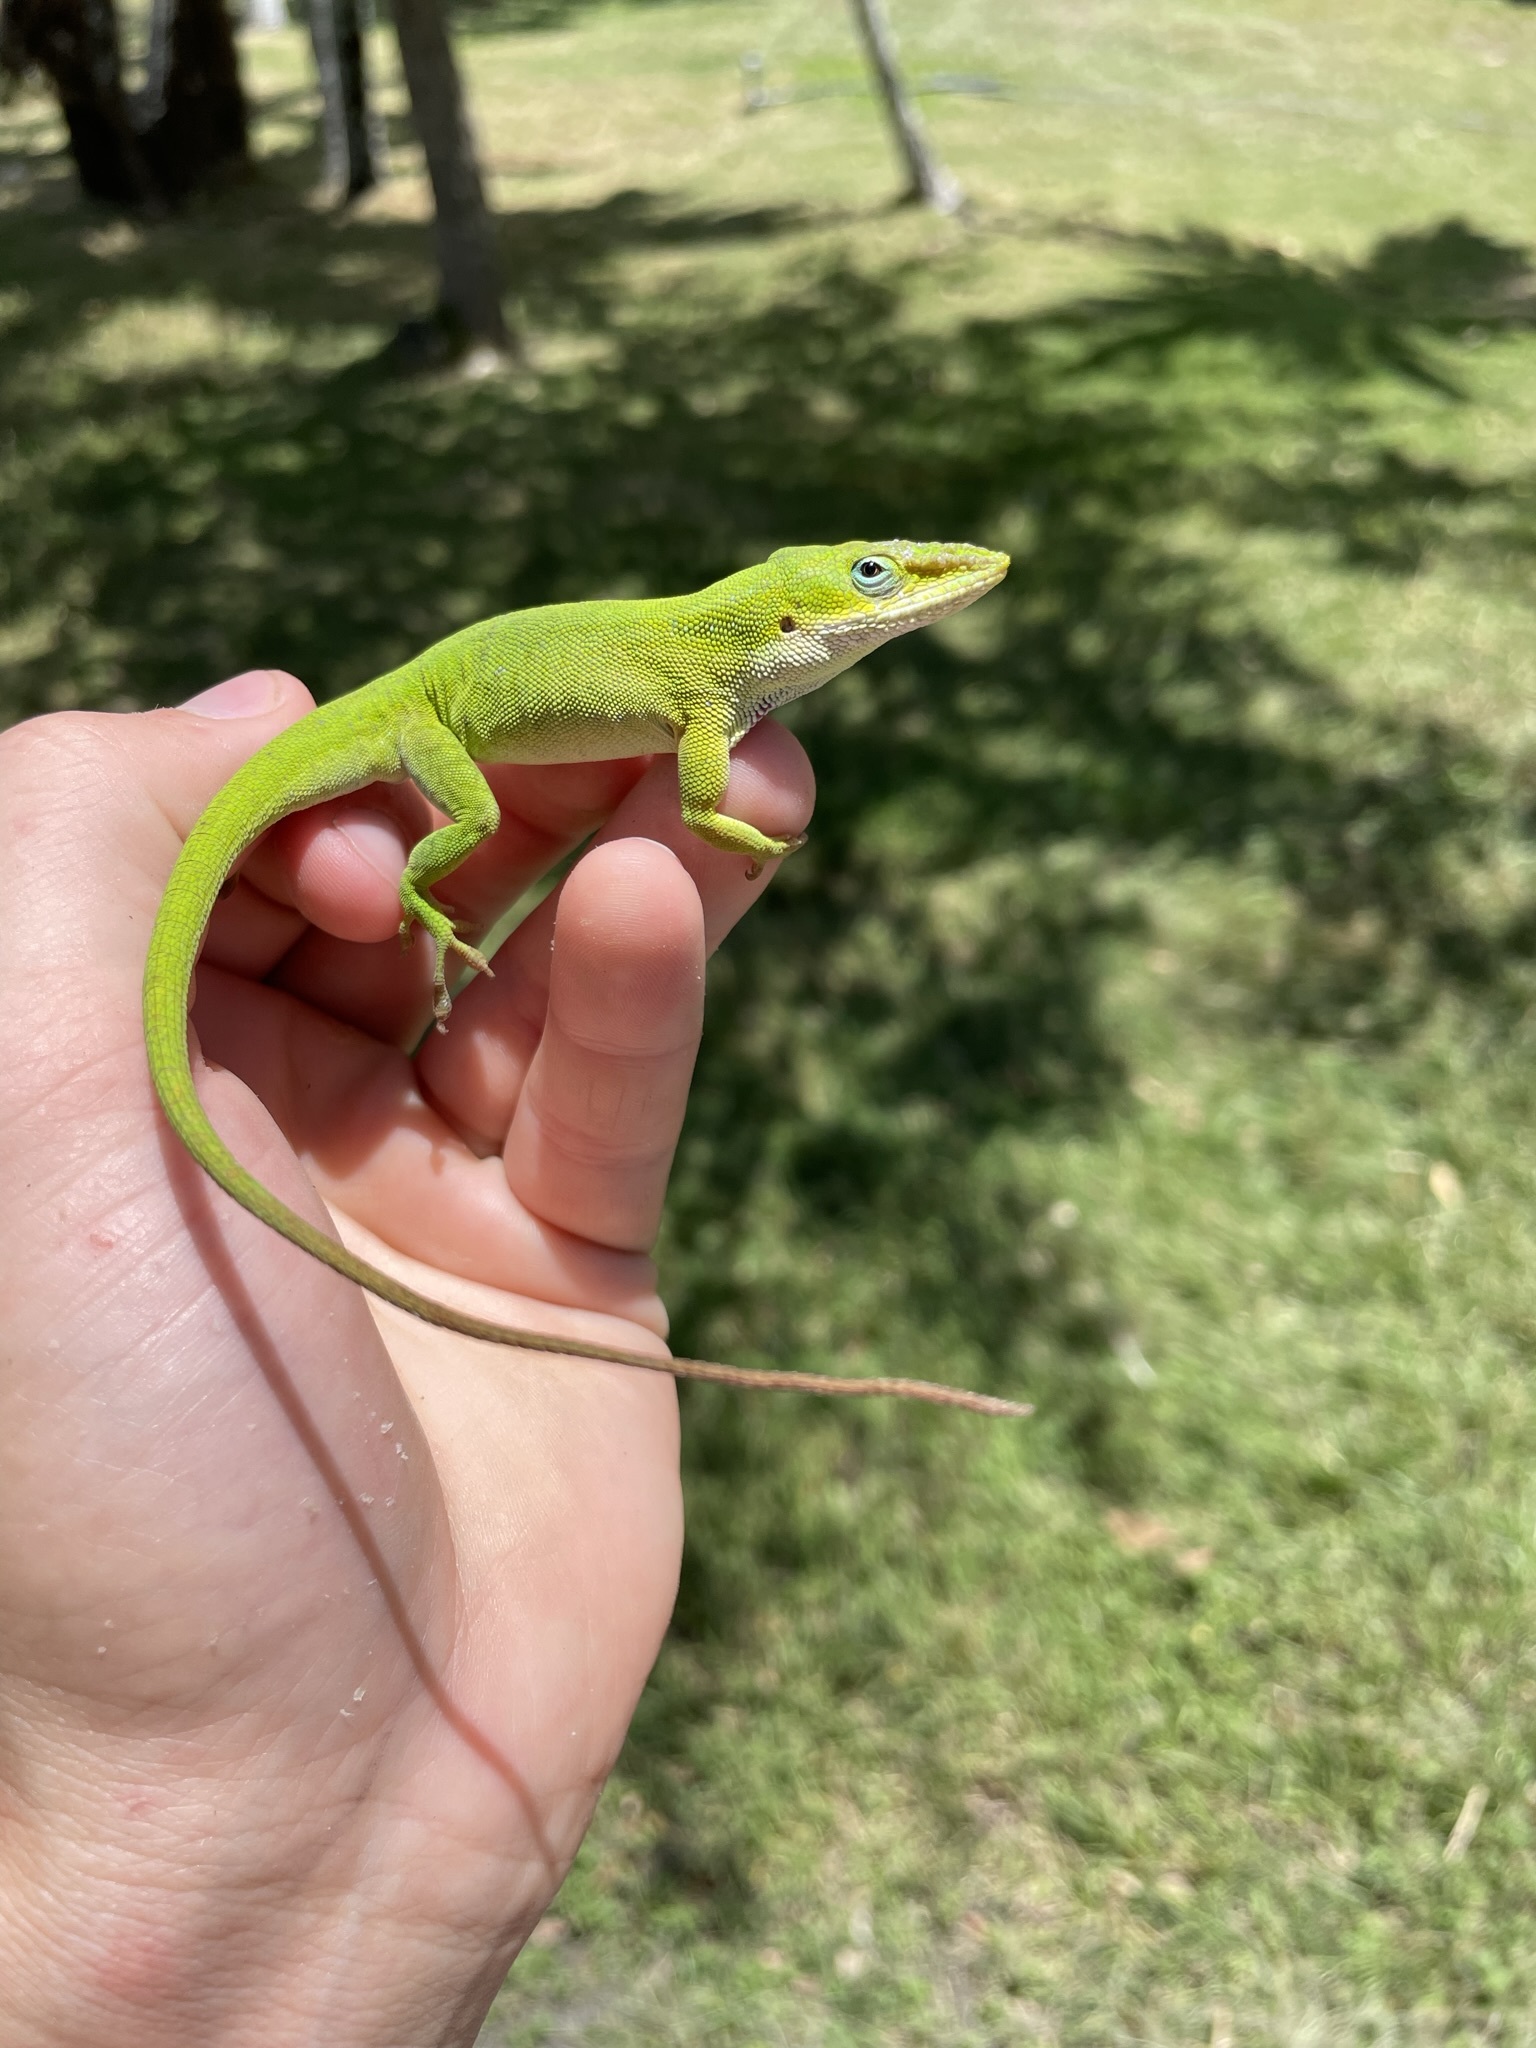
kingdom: Animalia
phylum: Chordata
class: Squamata
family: Dactyloidae
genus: Anolis
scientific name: Anolis carolinensis
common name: Green anole
